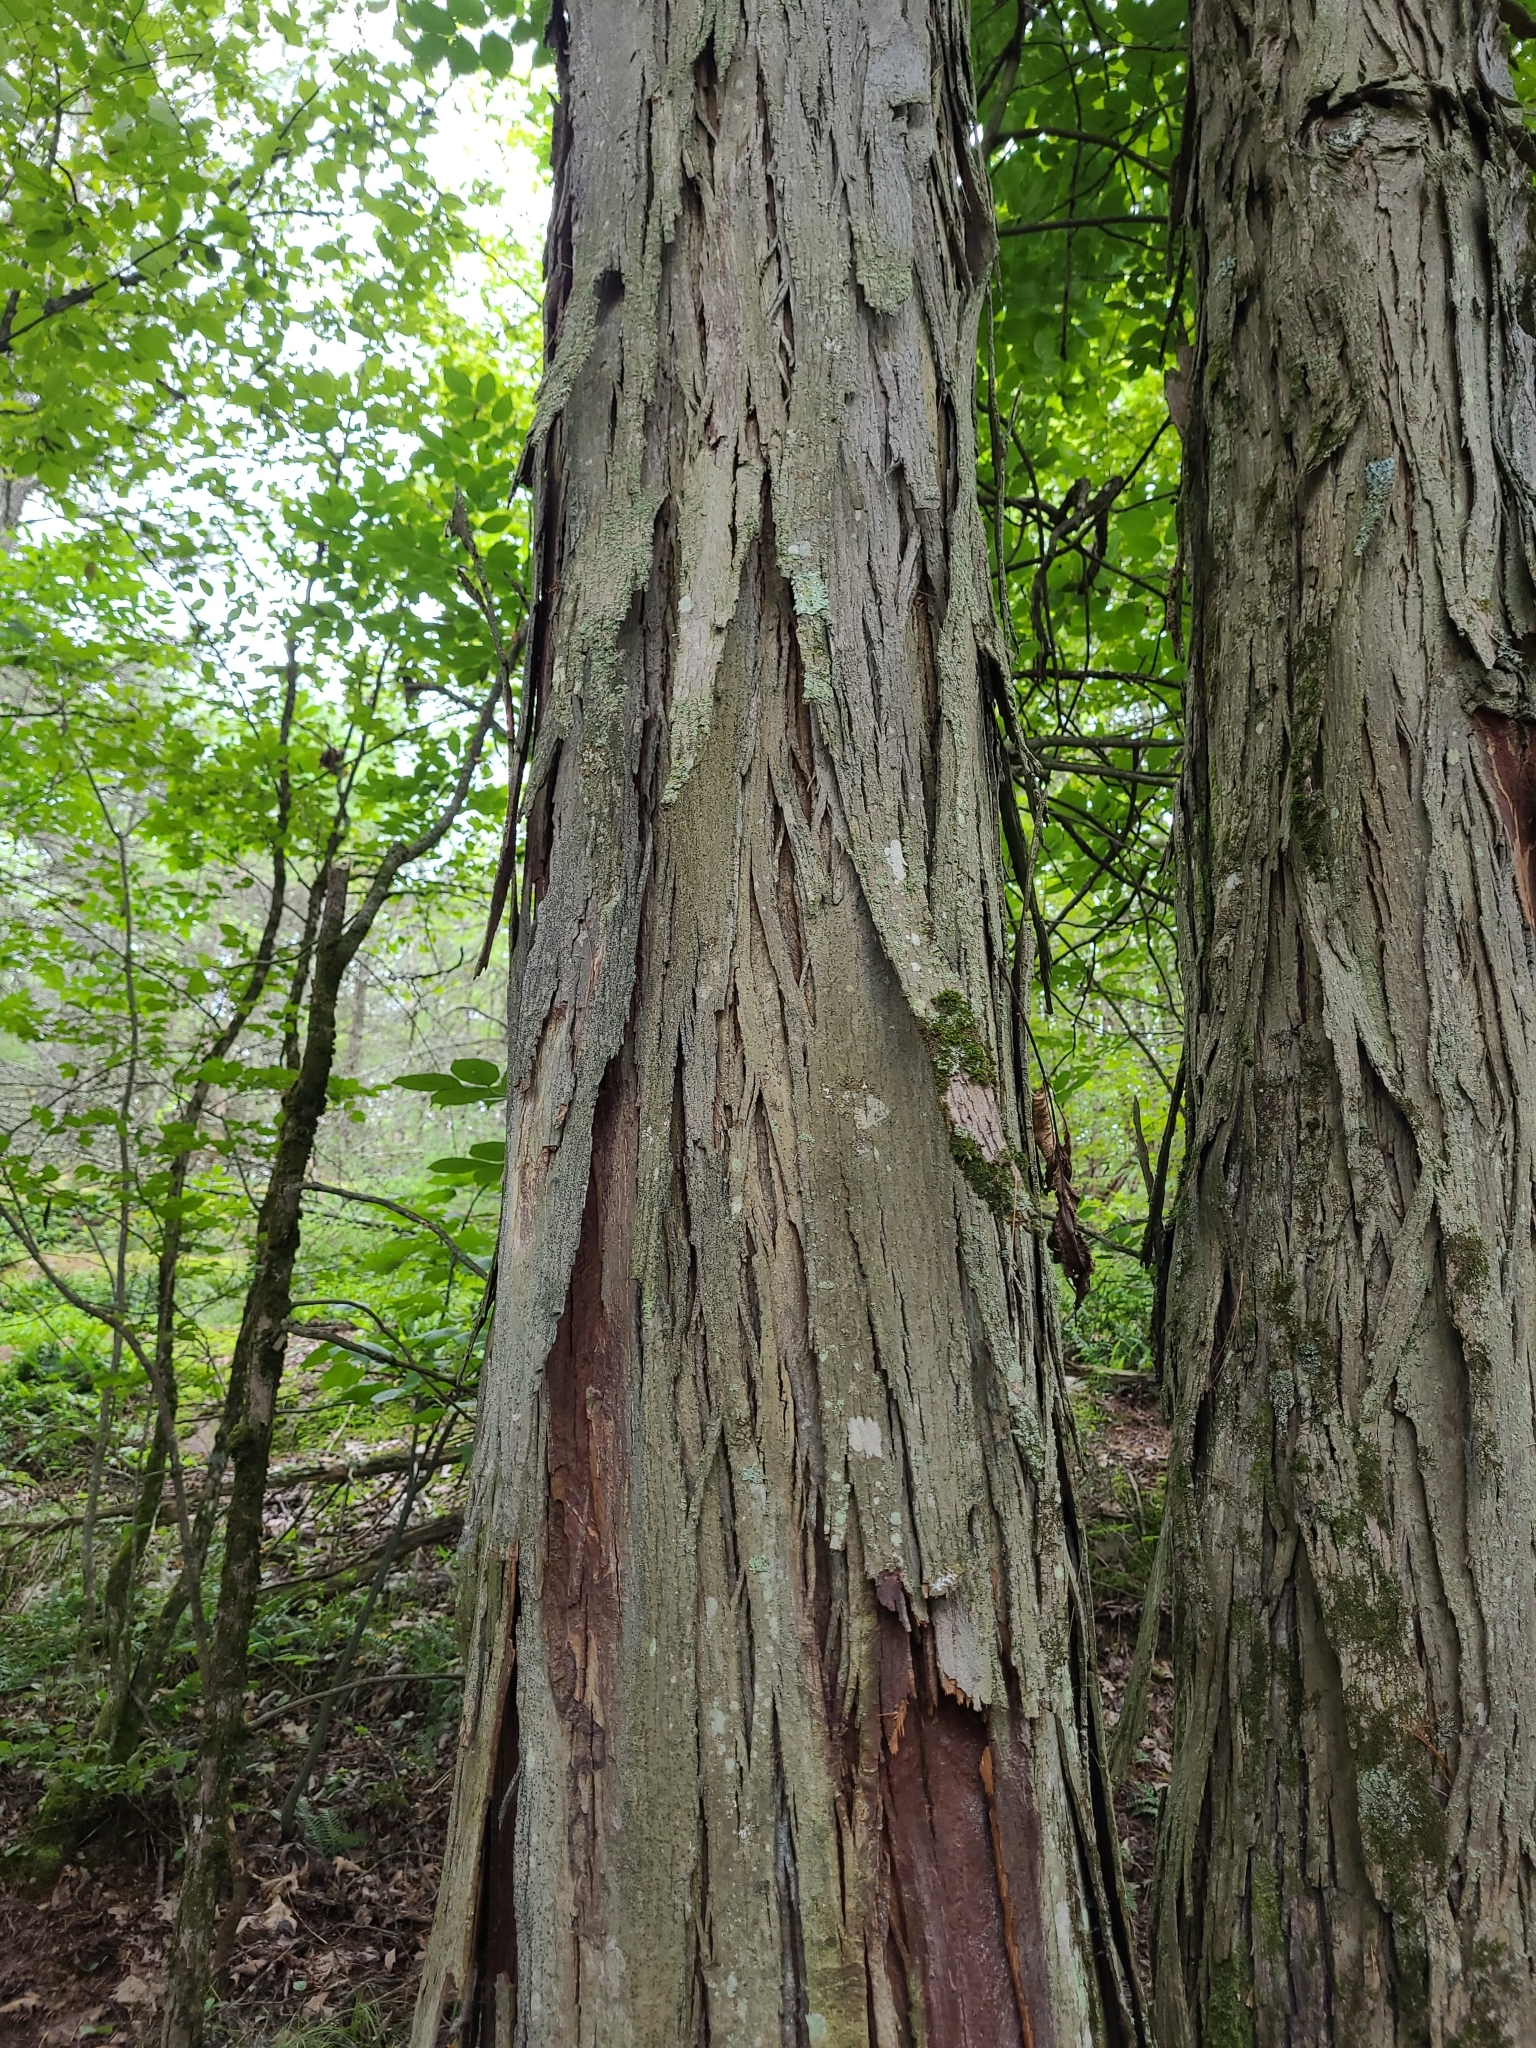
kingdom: Plantae
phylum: Tracheophyta
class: Magnoliopsida
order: Fagales
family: Juglandaceae
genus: Carya
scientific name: Carya ovata
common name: Shagbark hickory
